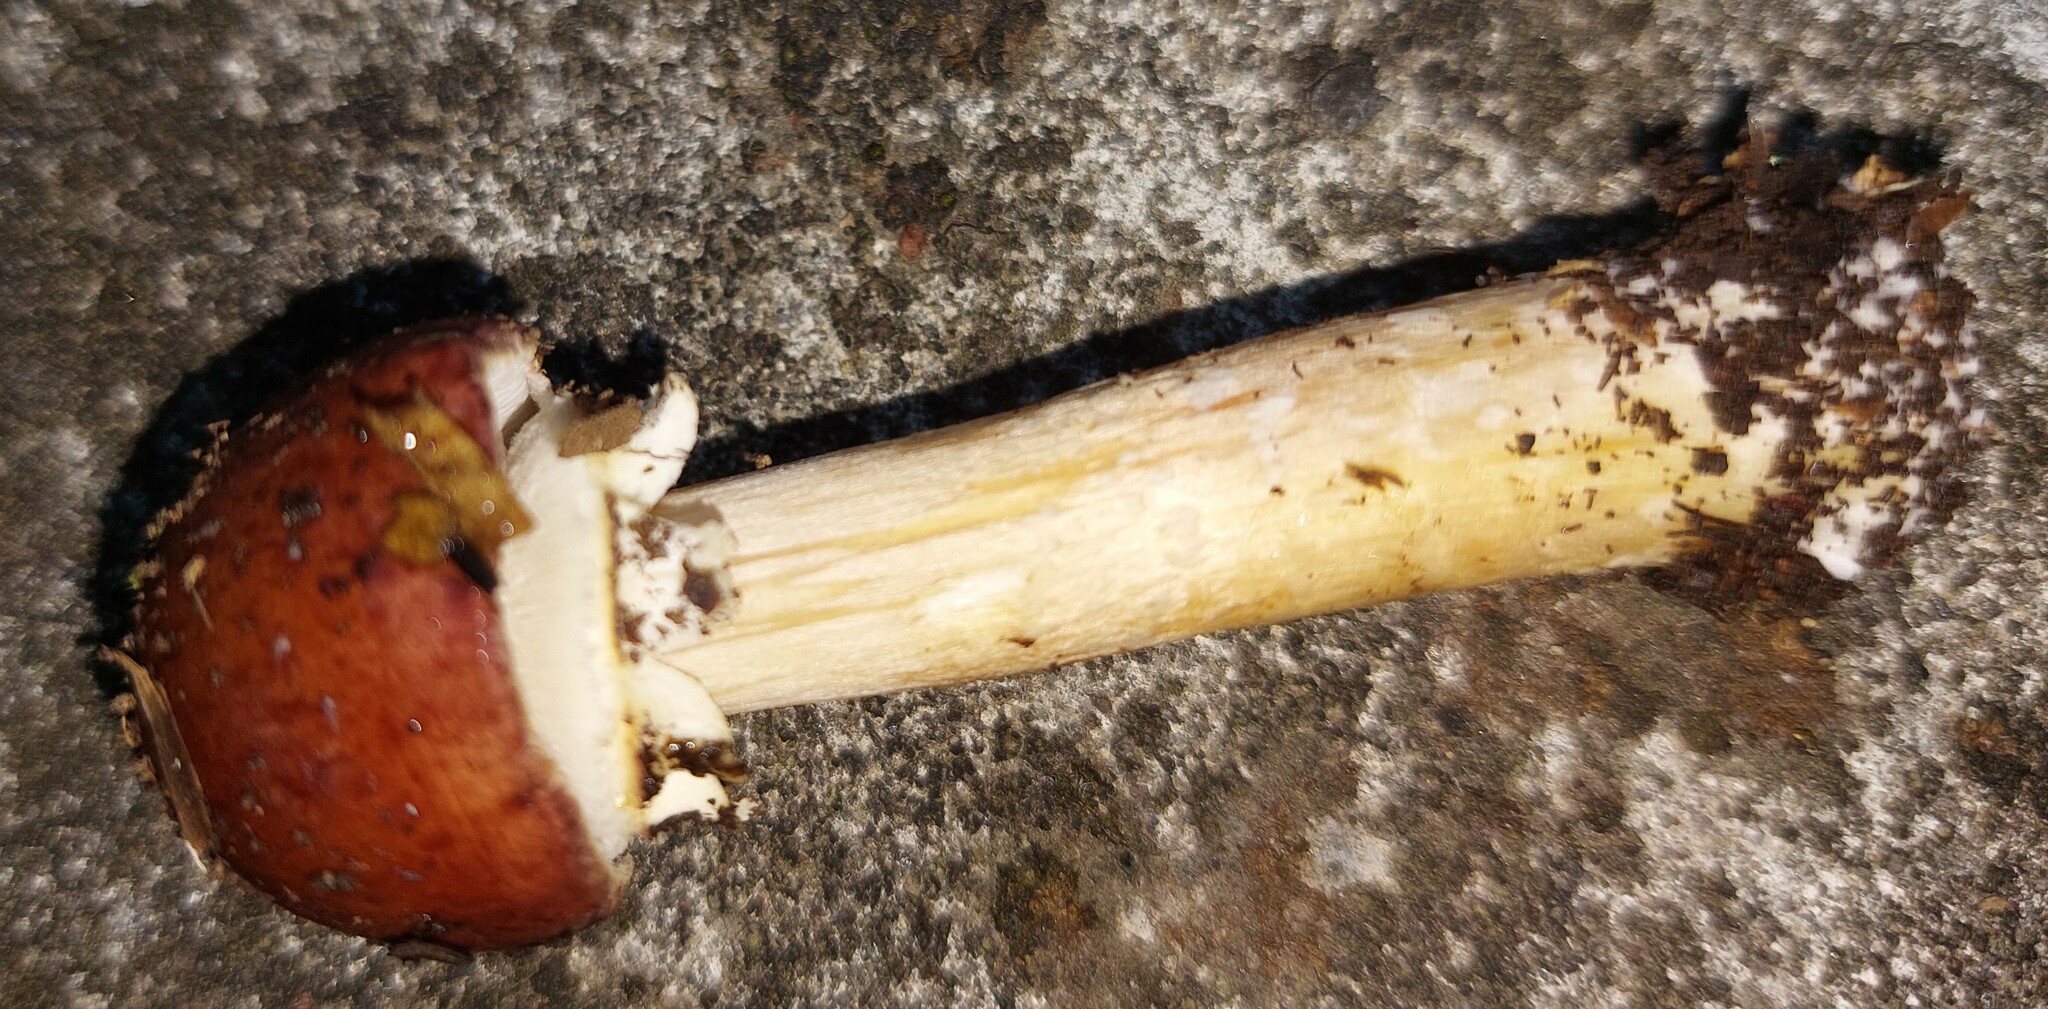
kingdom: Fungi
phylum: Basidiomycota
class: Agaricomycetes
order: Agaricales
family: Strophariaceae
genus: Stropharia
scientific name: Stropharia rugosoannulata
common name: Wine roundhead
